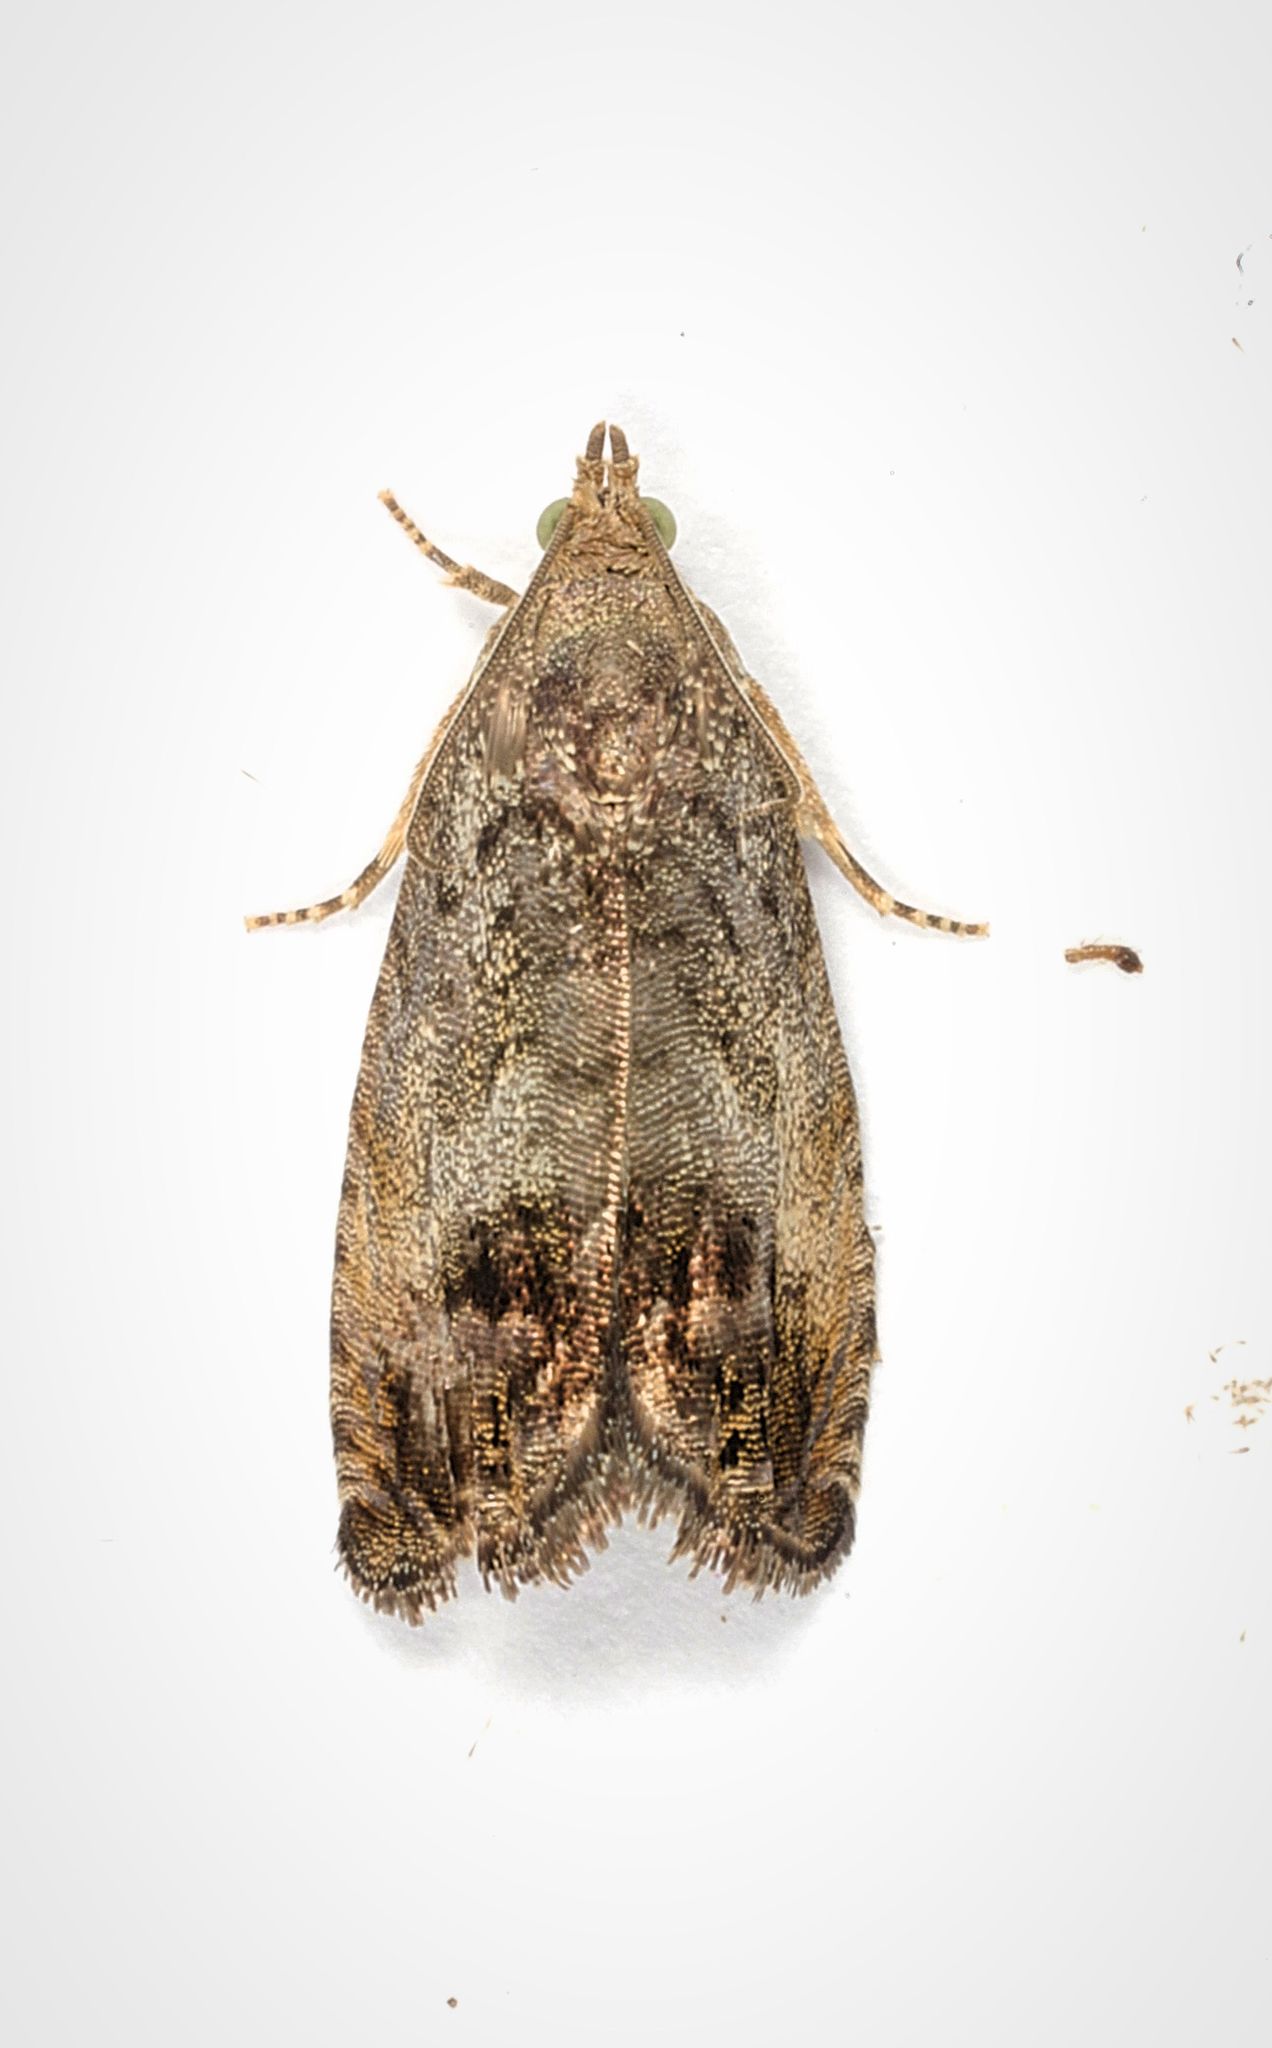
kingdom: Animalia
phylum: Arthropoda
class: Insecta
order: Lepidoptera
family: Tortricidae
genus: Cydia
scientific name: Cydia splendana
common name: De: kastanienwickler, eichenwickler es: oruga de la castaña fr: carpocapse des châtaignes it: cidia o tortrice tardiva delle castagne pt: bichado das castanhas gb: acorn moth, chestnut fruit tortrix
